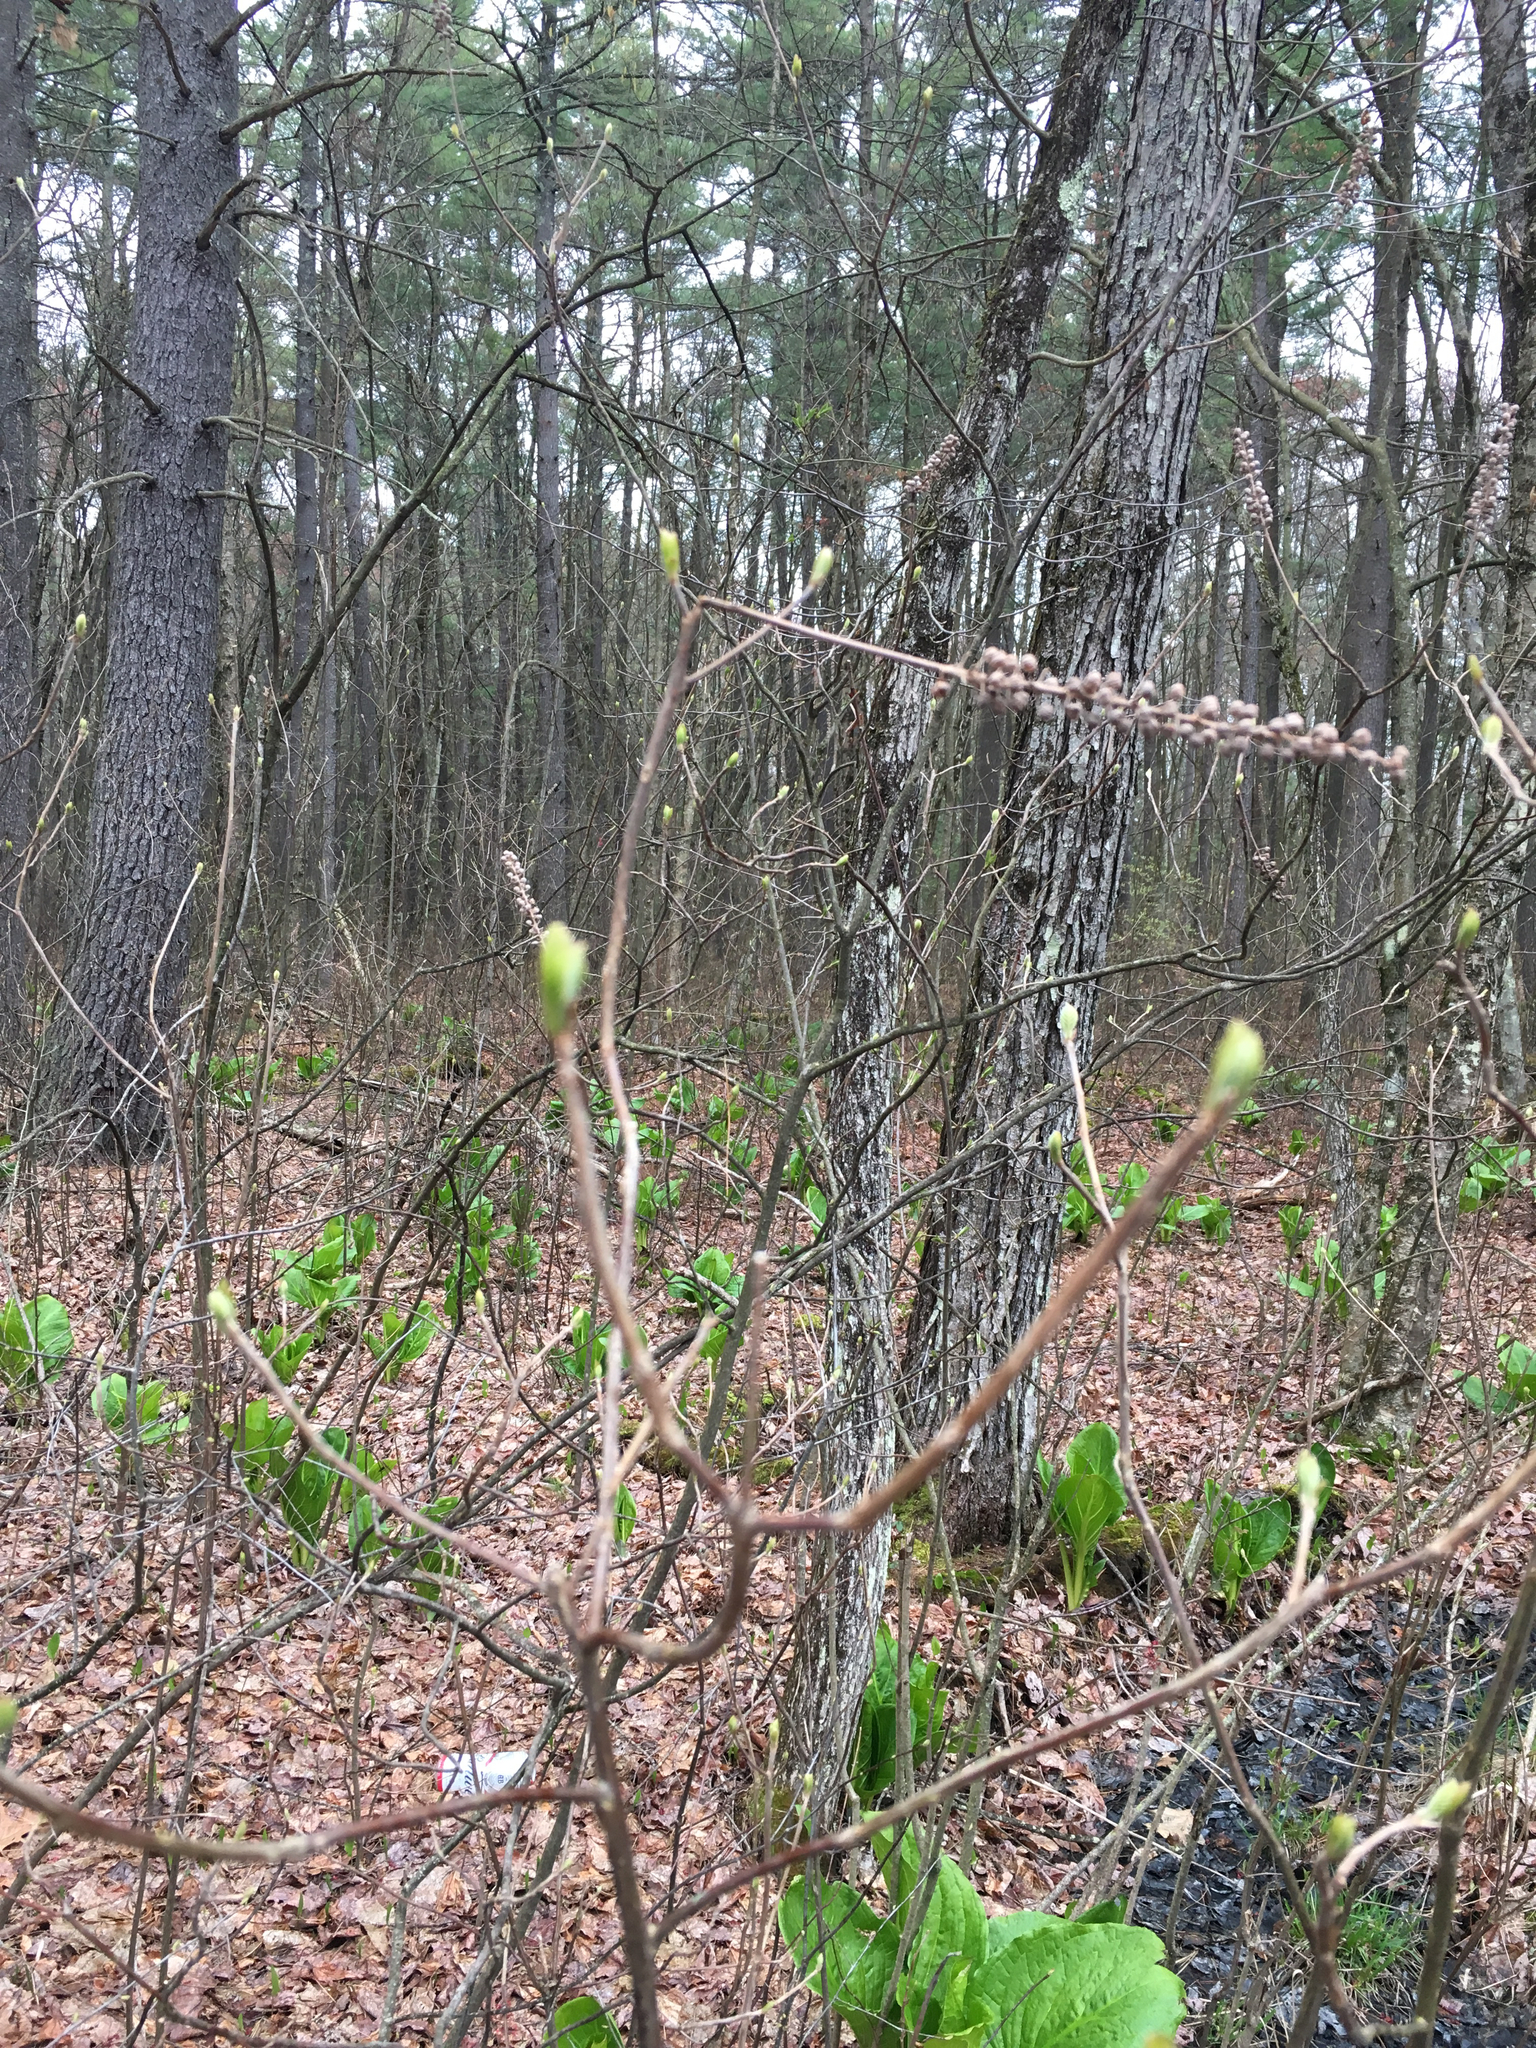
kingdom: Plantae
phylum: Tracheophyta
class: Magnoliopsida
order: Ericales
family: Clethraceae
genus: Clethra
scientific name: Clethra alnifolia
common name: Sweet pepperbush
